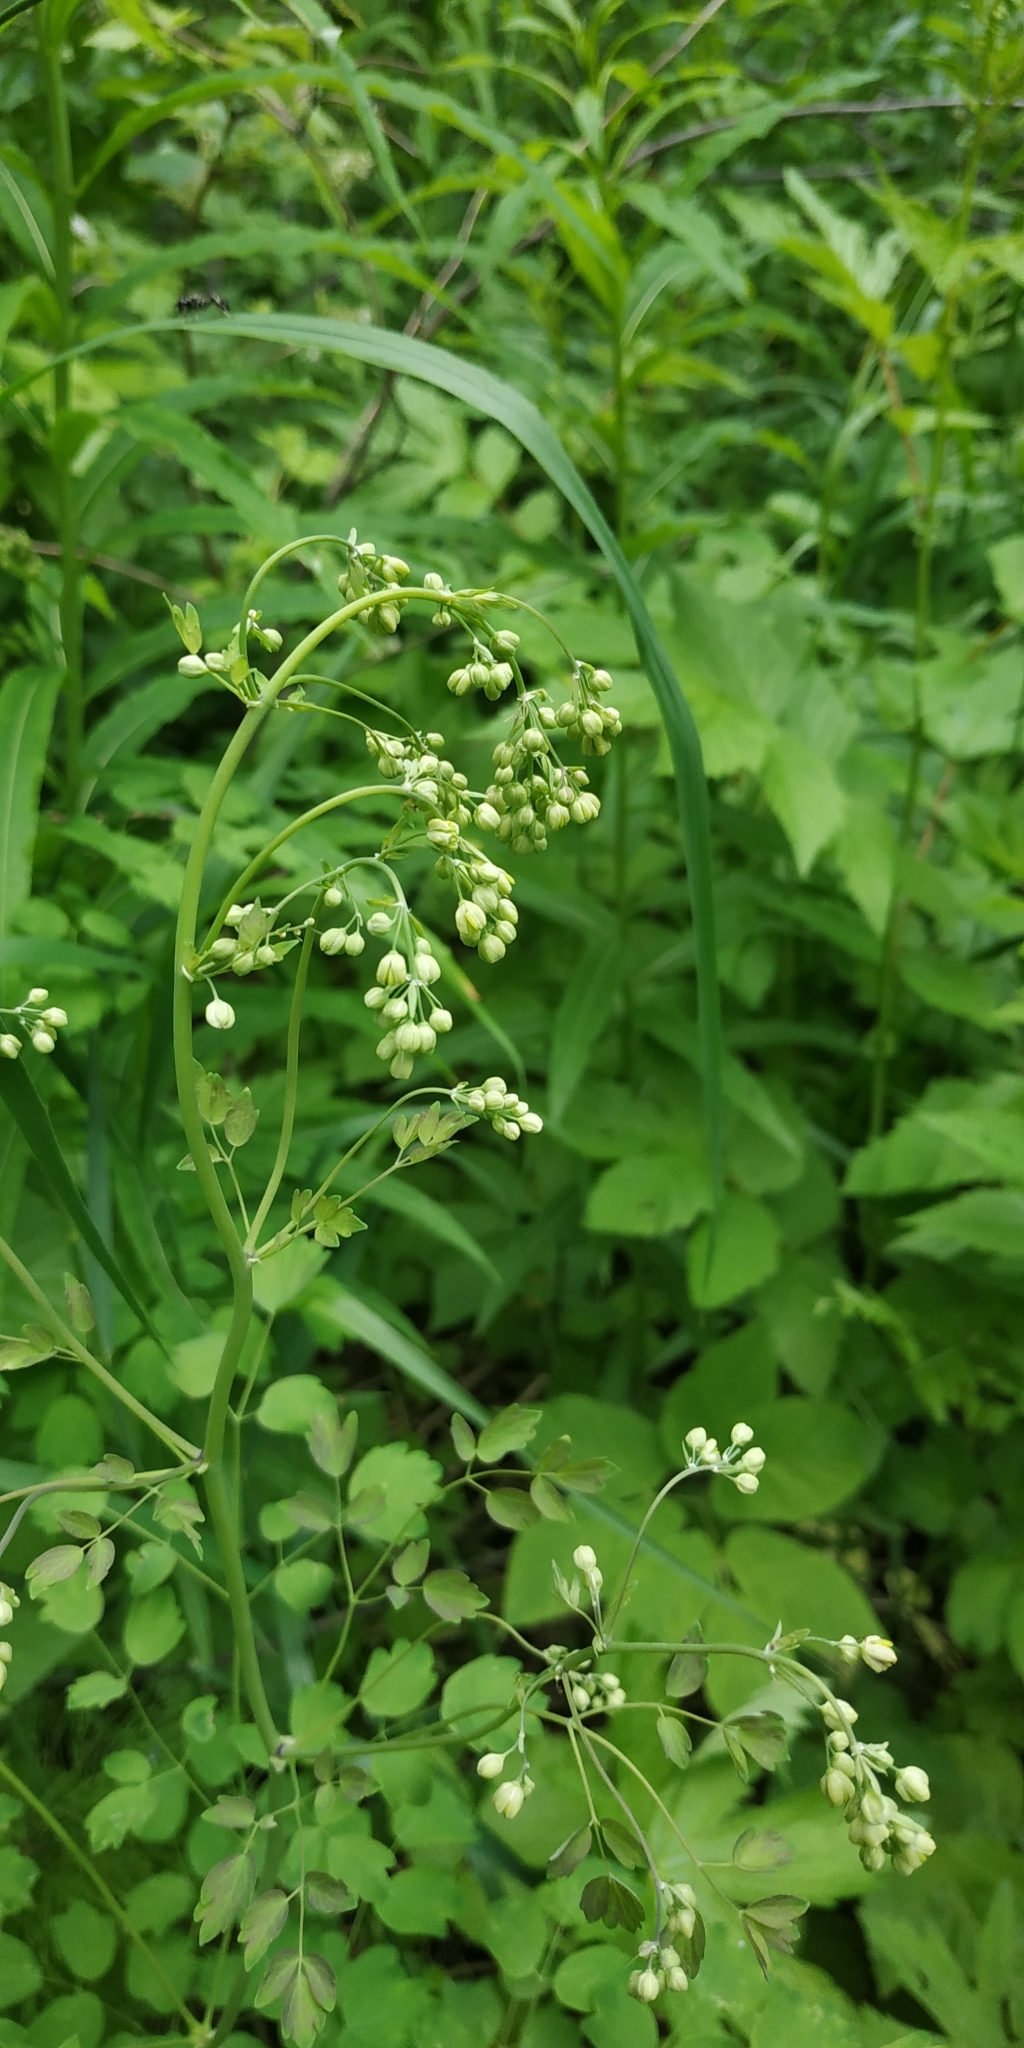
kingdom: Plantae
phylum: Tracheophyta
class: Magnoliopsida
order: Ranunculales
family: Ranunculaceae
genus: Thalictrum
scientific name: Thalictrum minus
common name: Lesser meadow-rue
